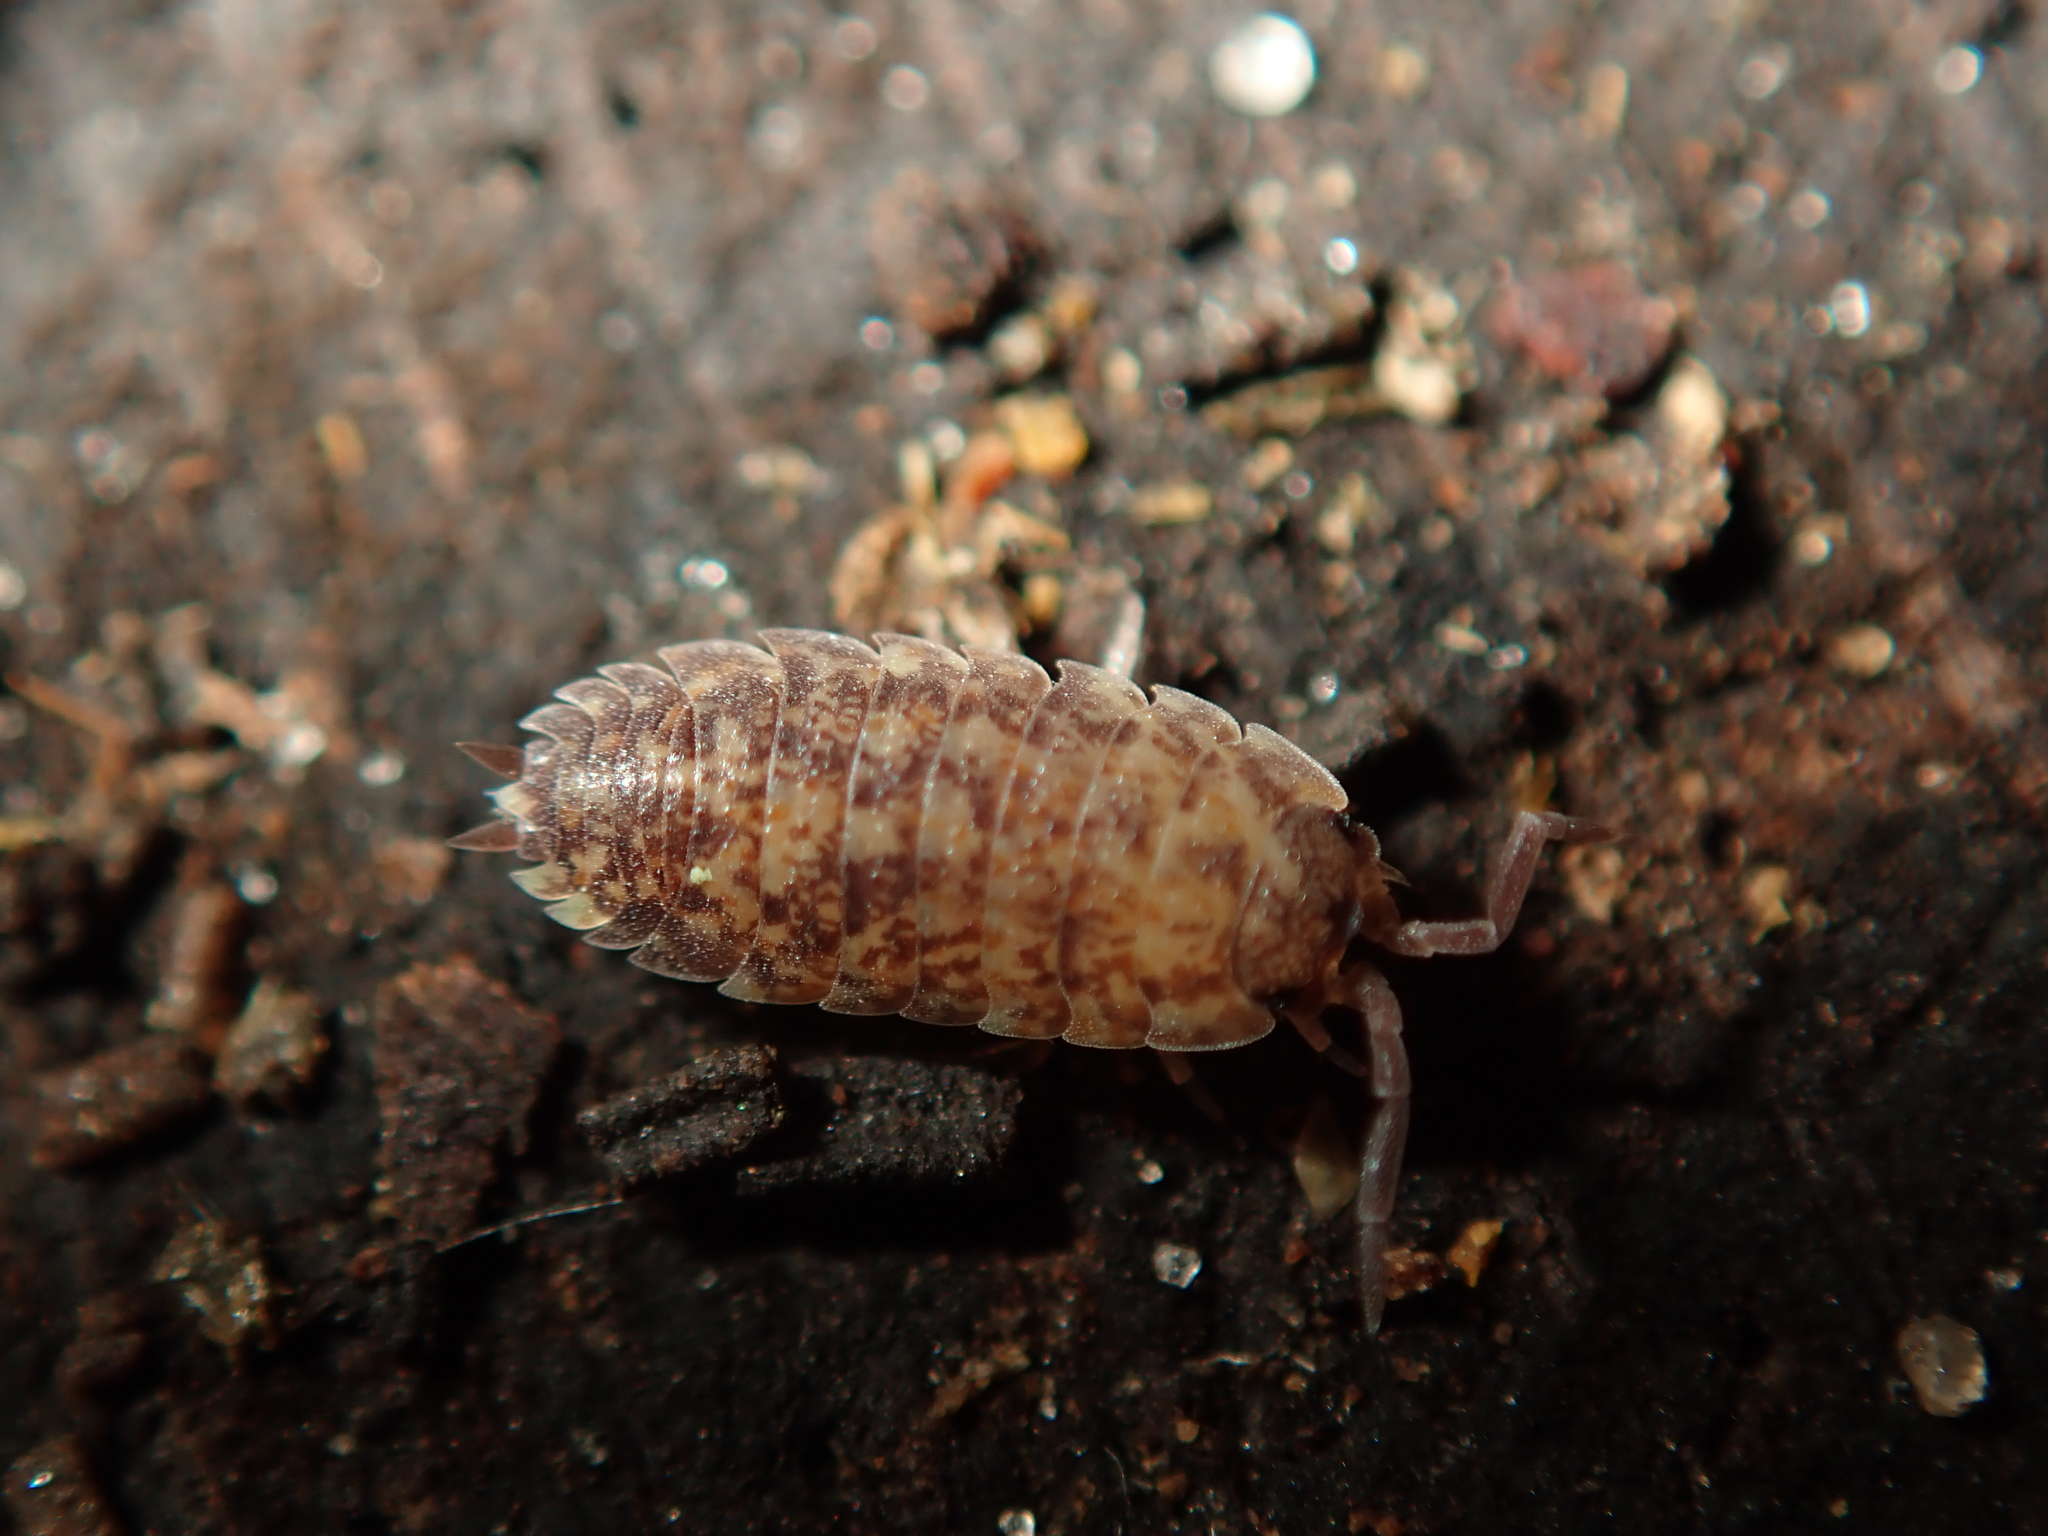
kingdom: Animalia
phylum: Arthropoda
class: Malacostraca
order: Isopoda
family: Porcellionidae
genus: Porcellio
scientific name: Porcellio scaber
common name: Common rough woodlouse
